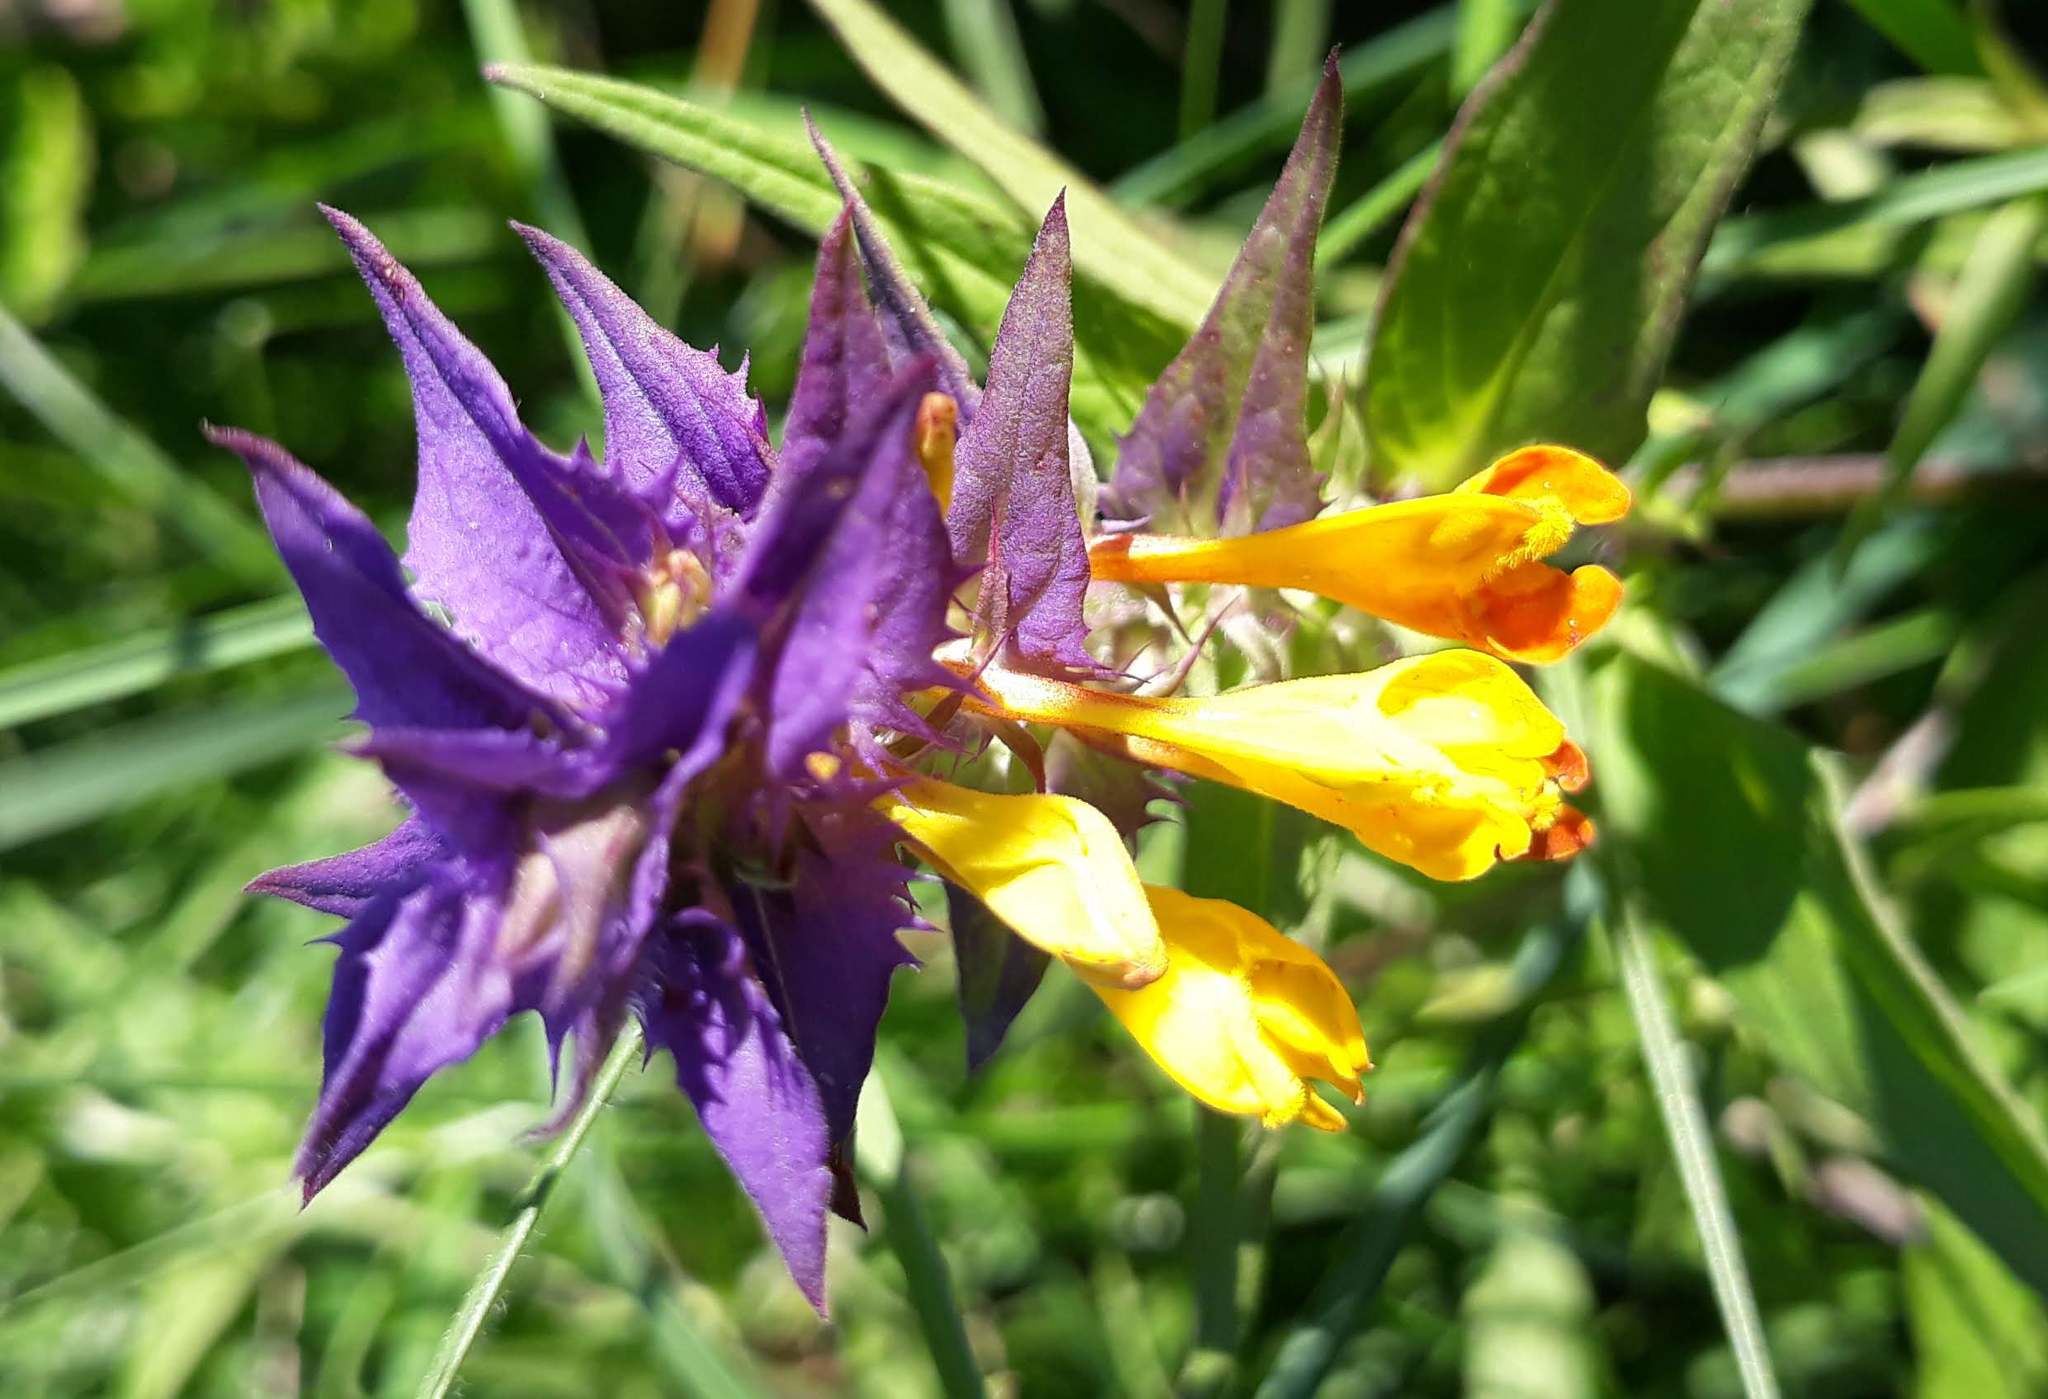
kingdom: Plantae
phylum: Tracheophyta
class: Magnoliopsida
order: Lamiales
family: Orobanchaceae
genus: Melampyrum
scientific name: Melampyrum nemorosum
